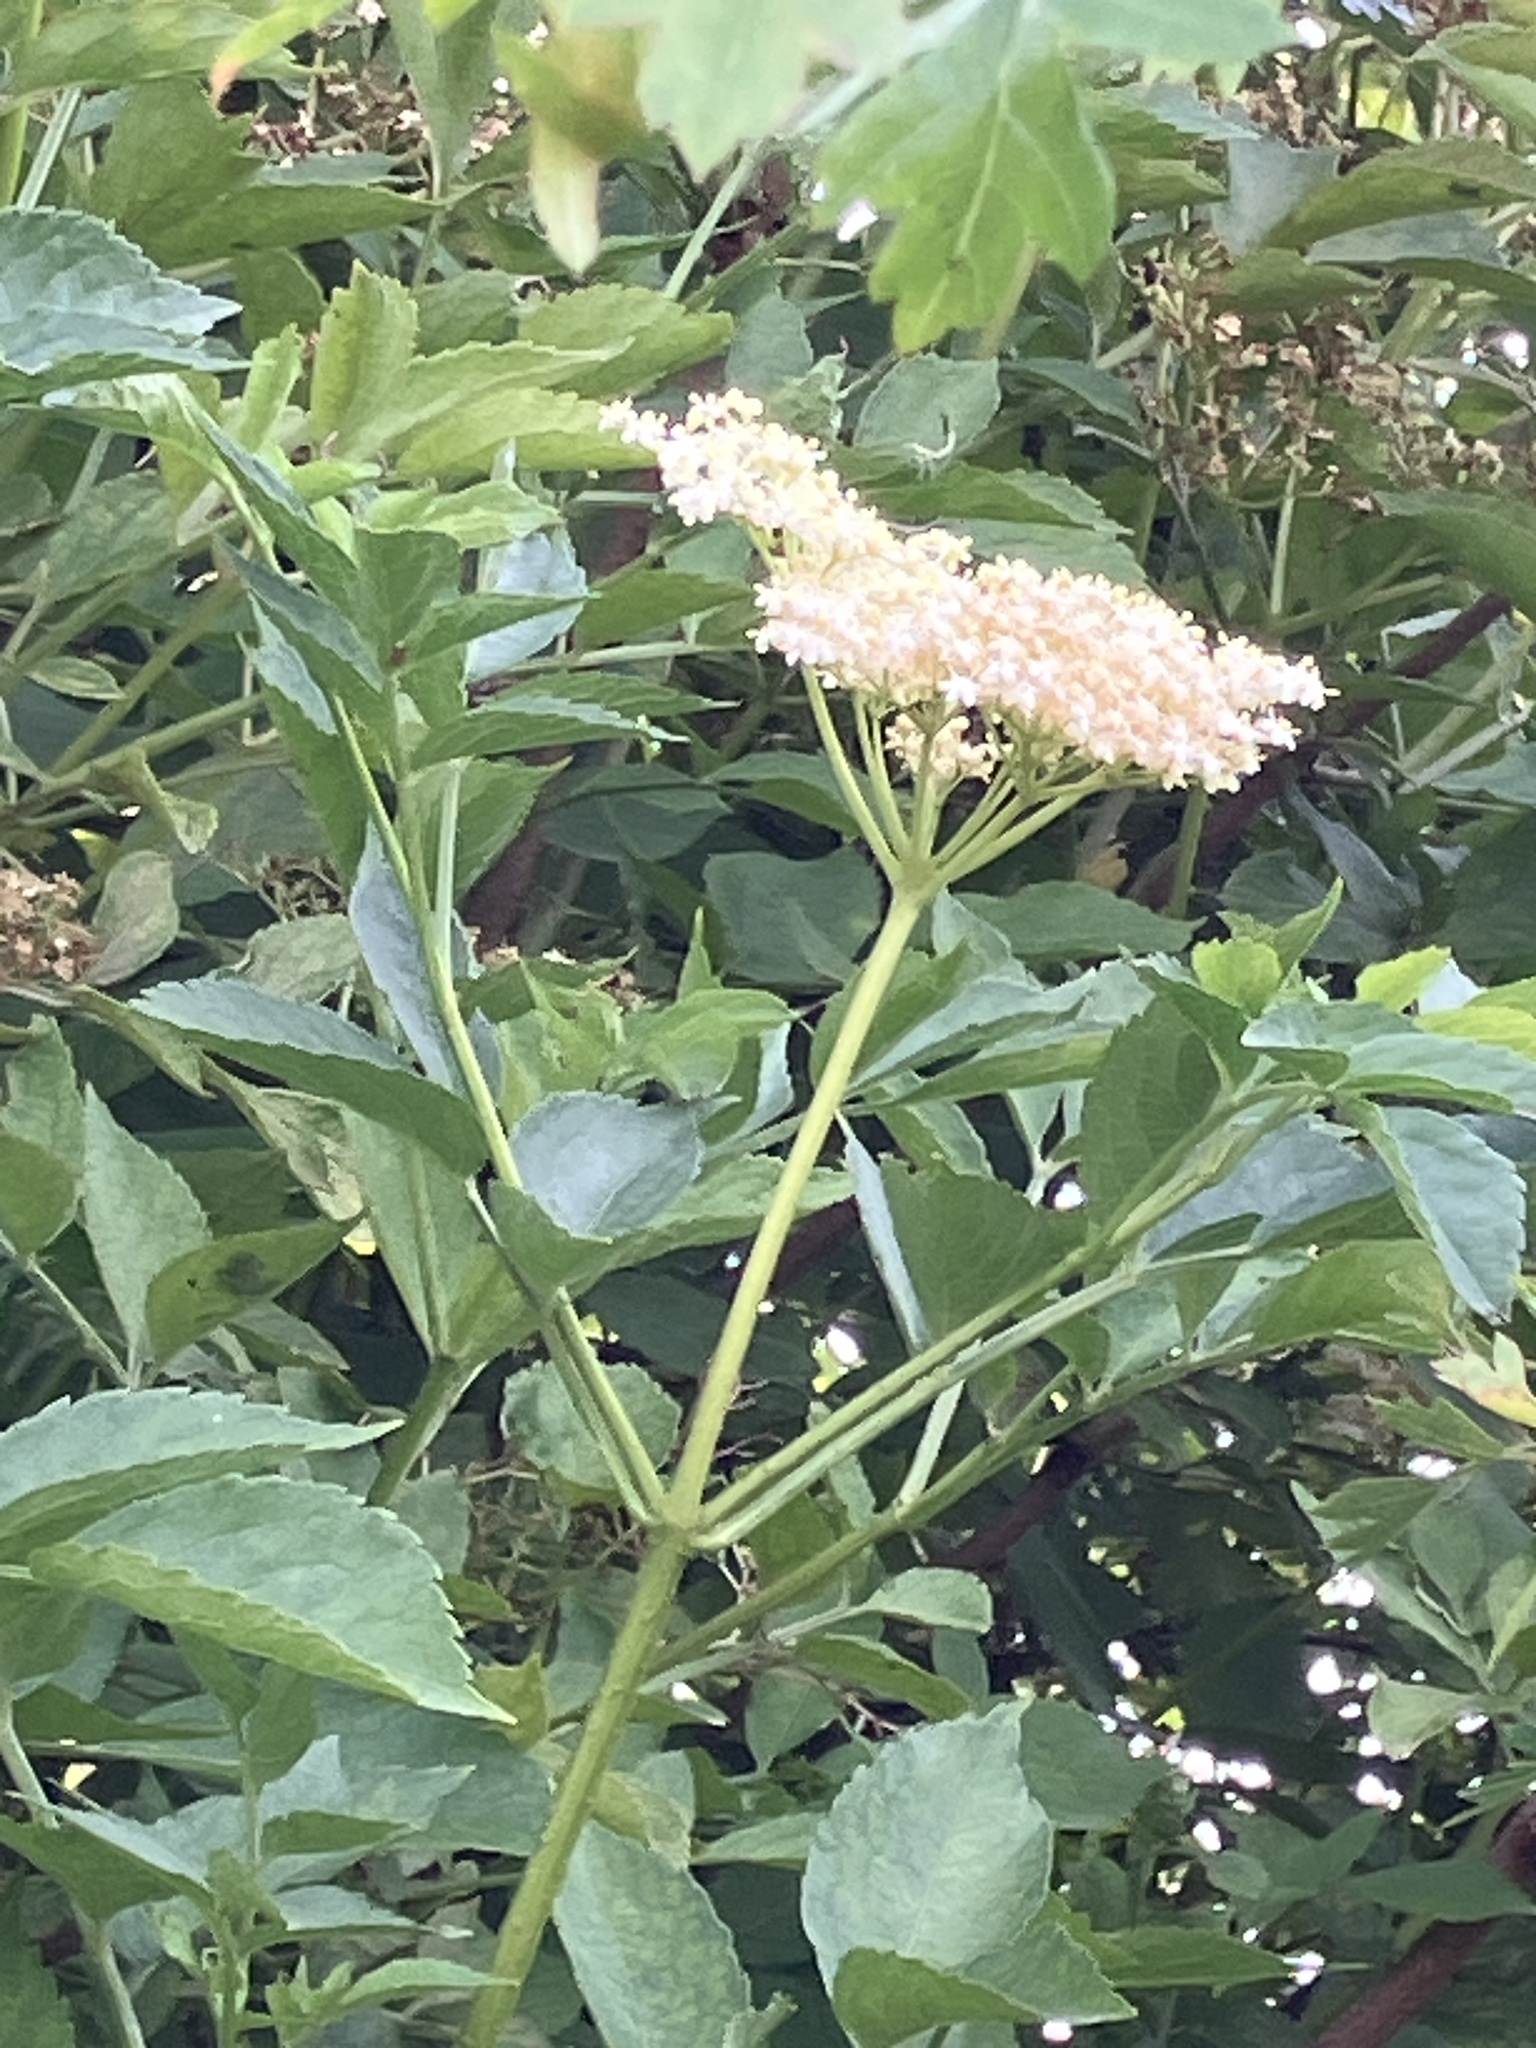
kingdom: Plantae
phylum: Tracheophyta
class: Magnoliopsida
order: Dipsacales
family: Viburnaceae
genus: Sambucus
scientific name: Sambucus nigra
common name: Elder
